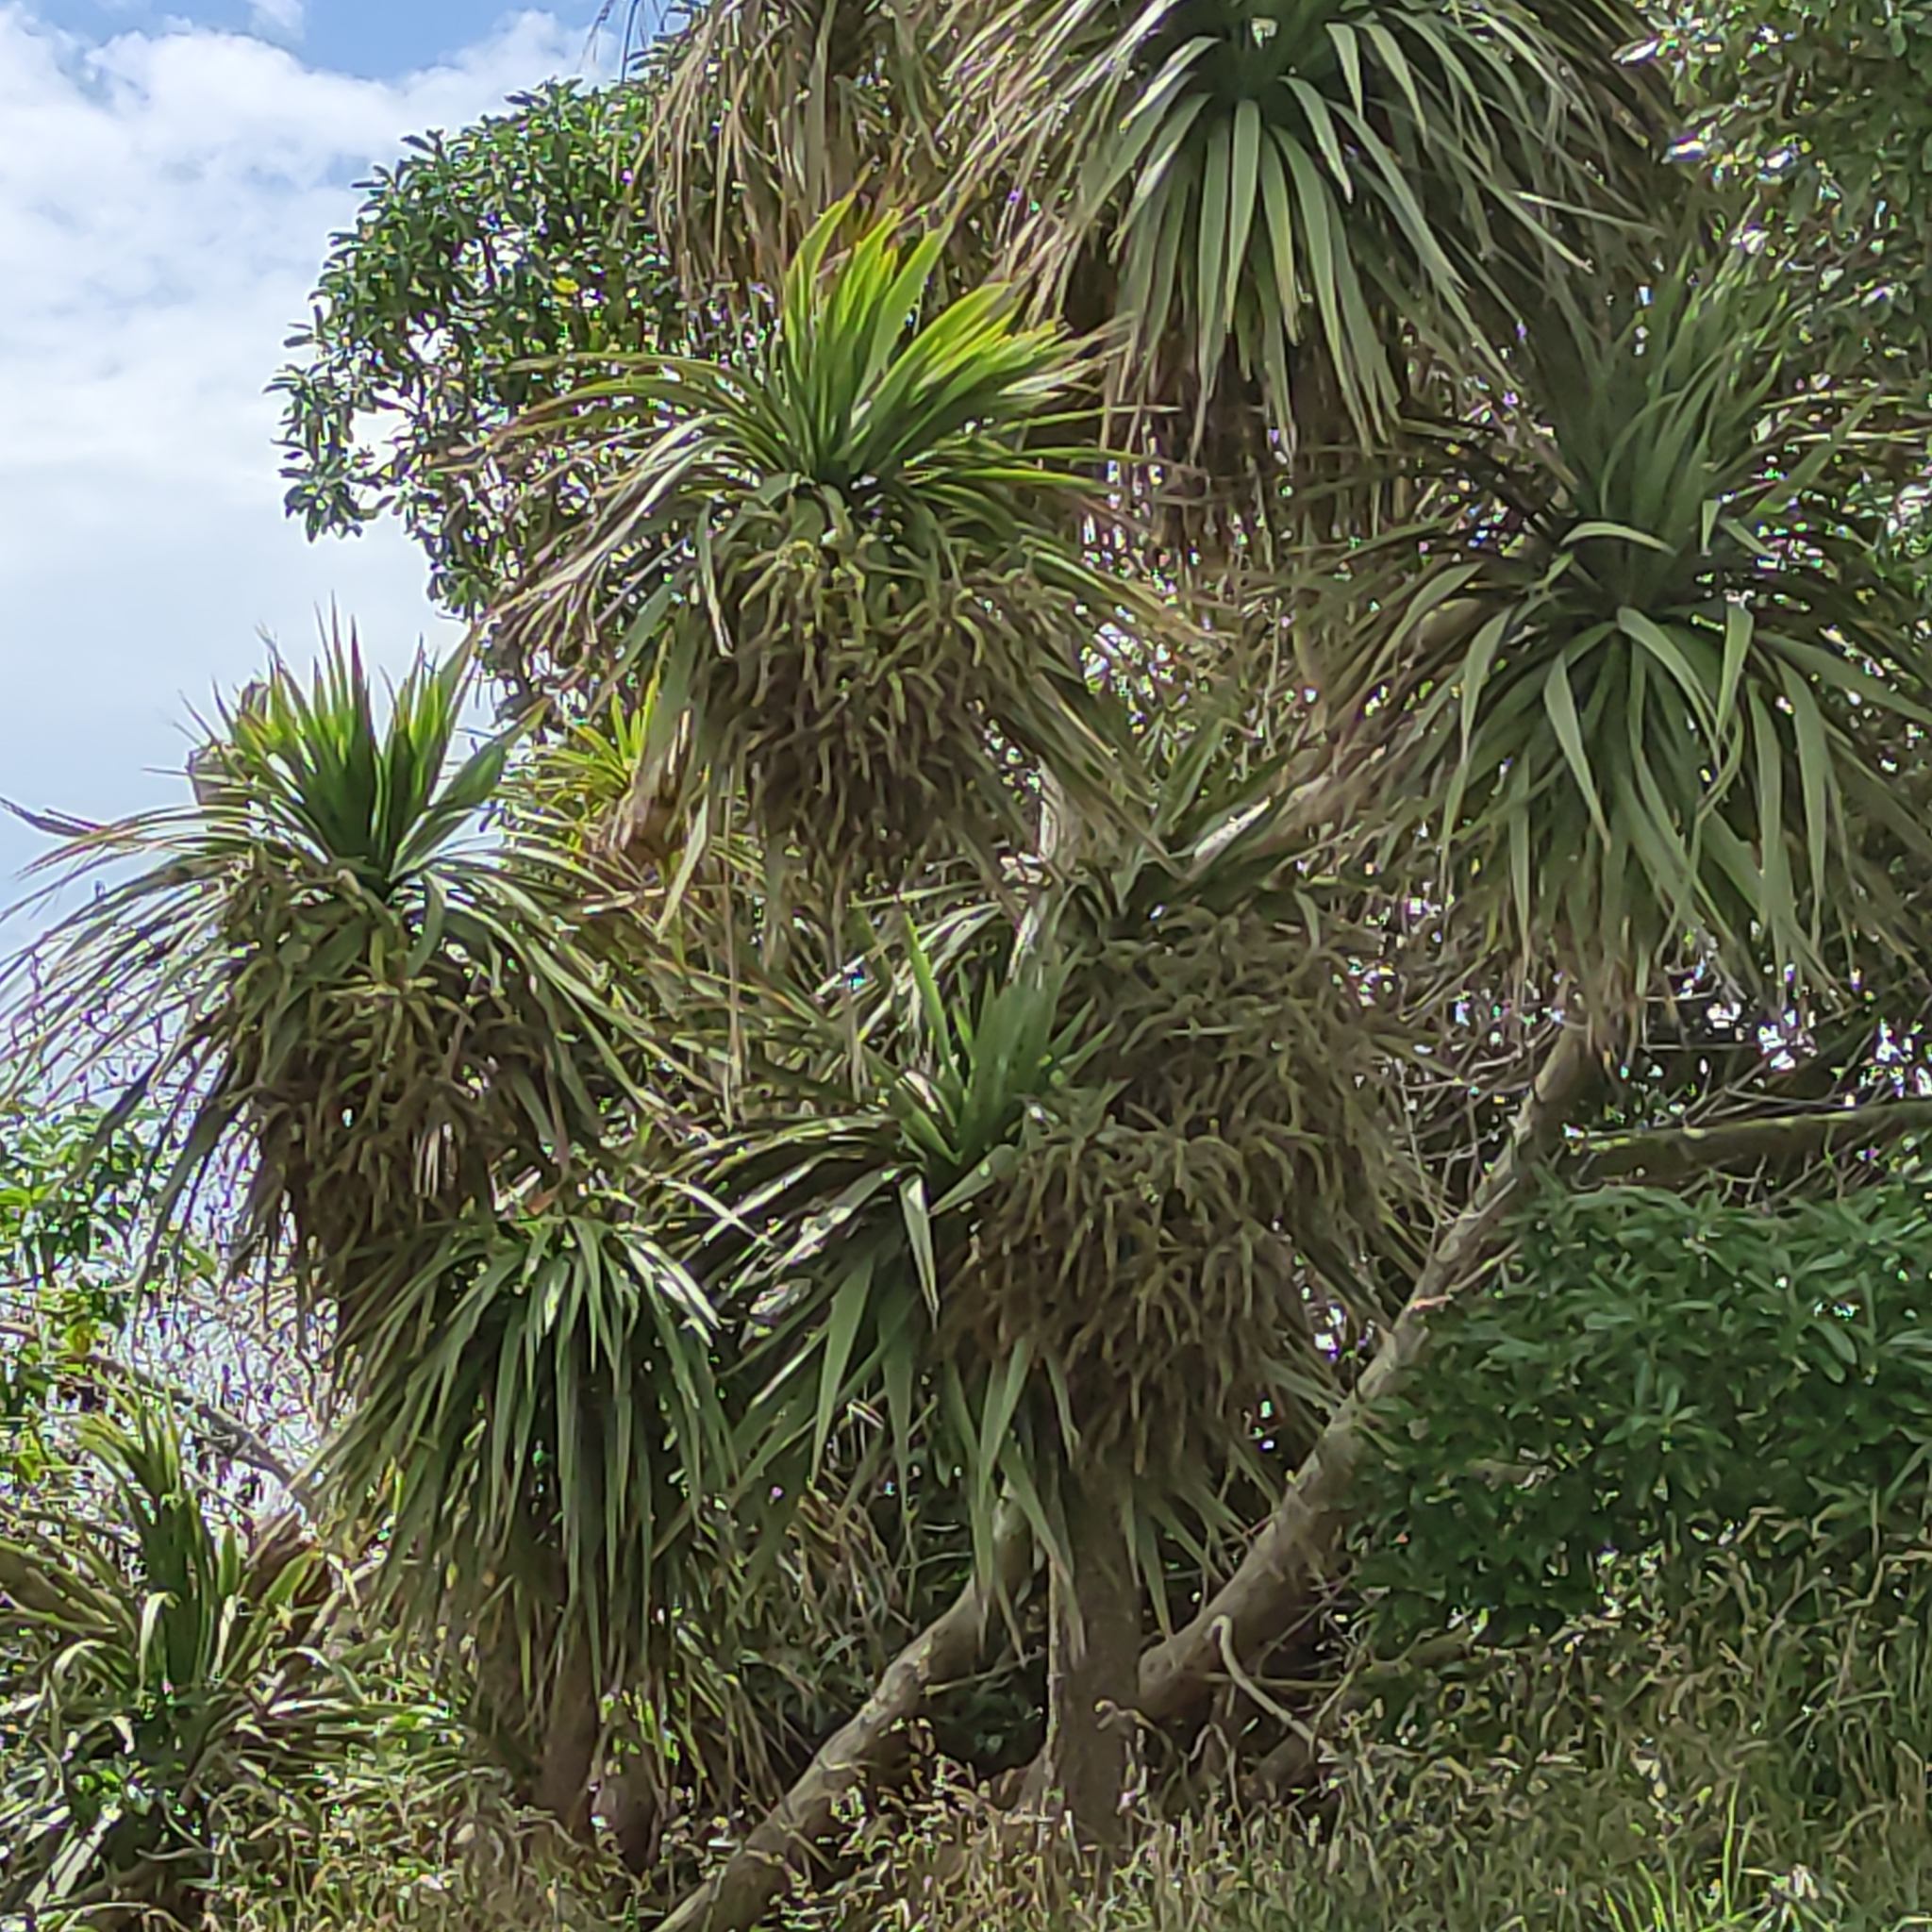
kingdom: Plantae
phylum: Tracheophyta
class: Liliopsida
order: Asparagales
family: Asparagaceae
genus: Cordyline
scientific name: Cordyline australis
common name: Cabbage-palm
